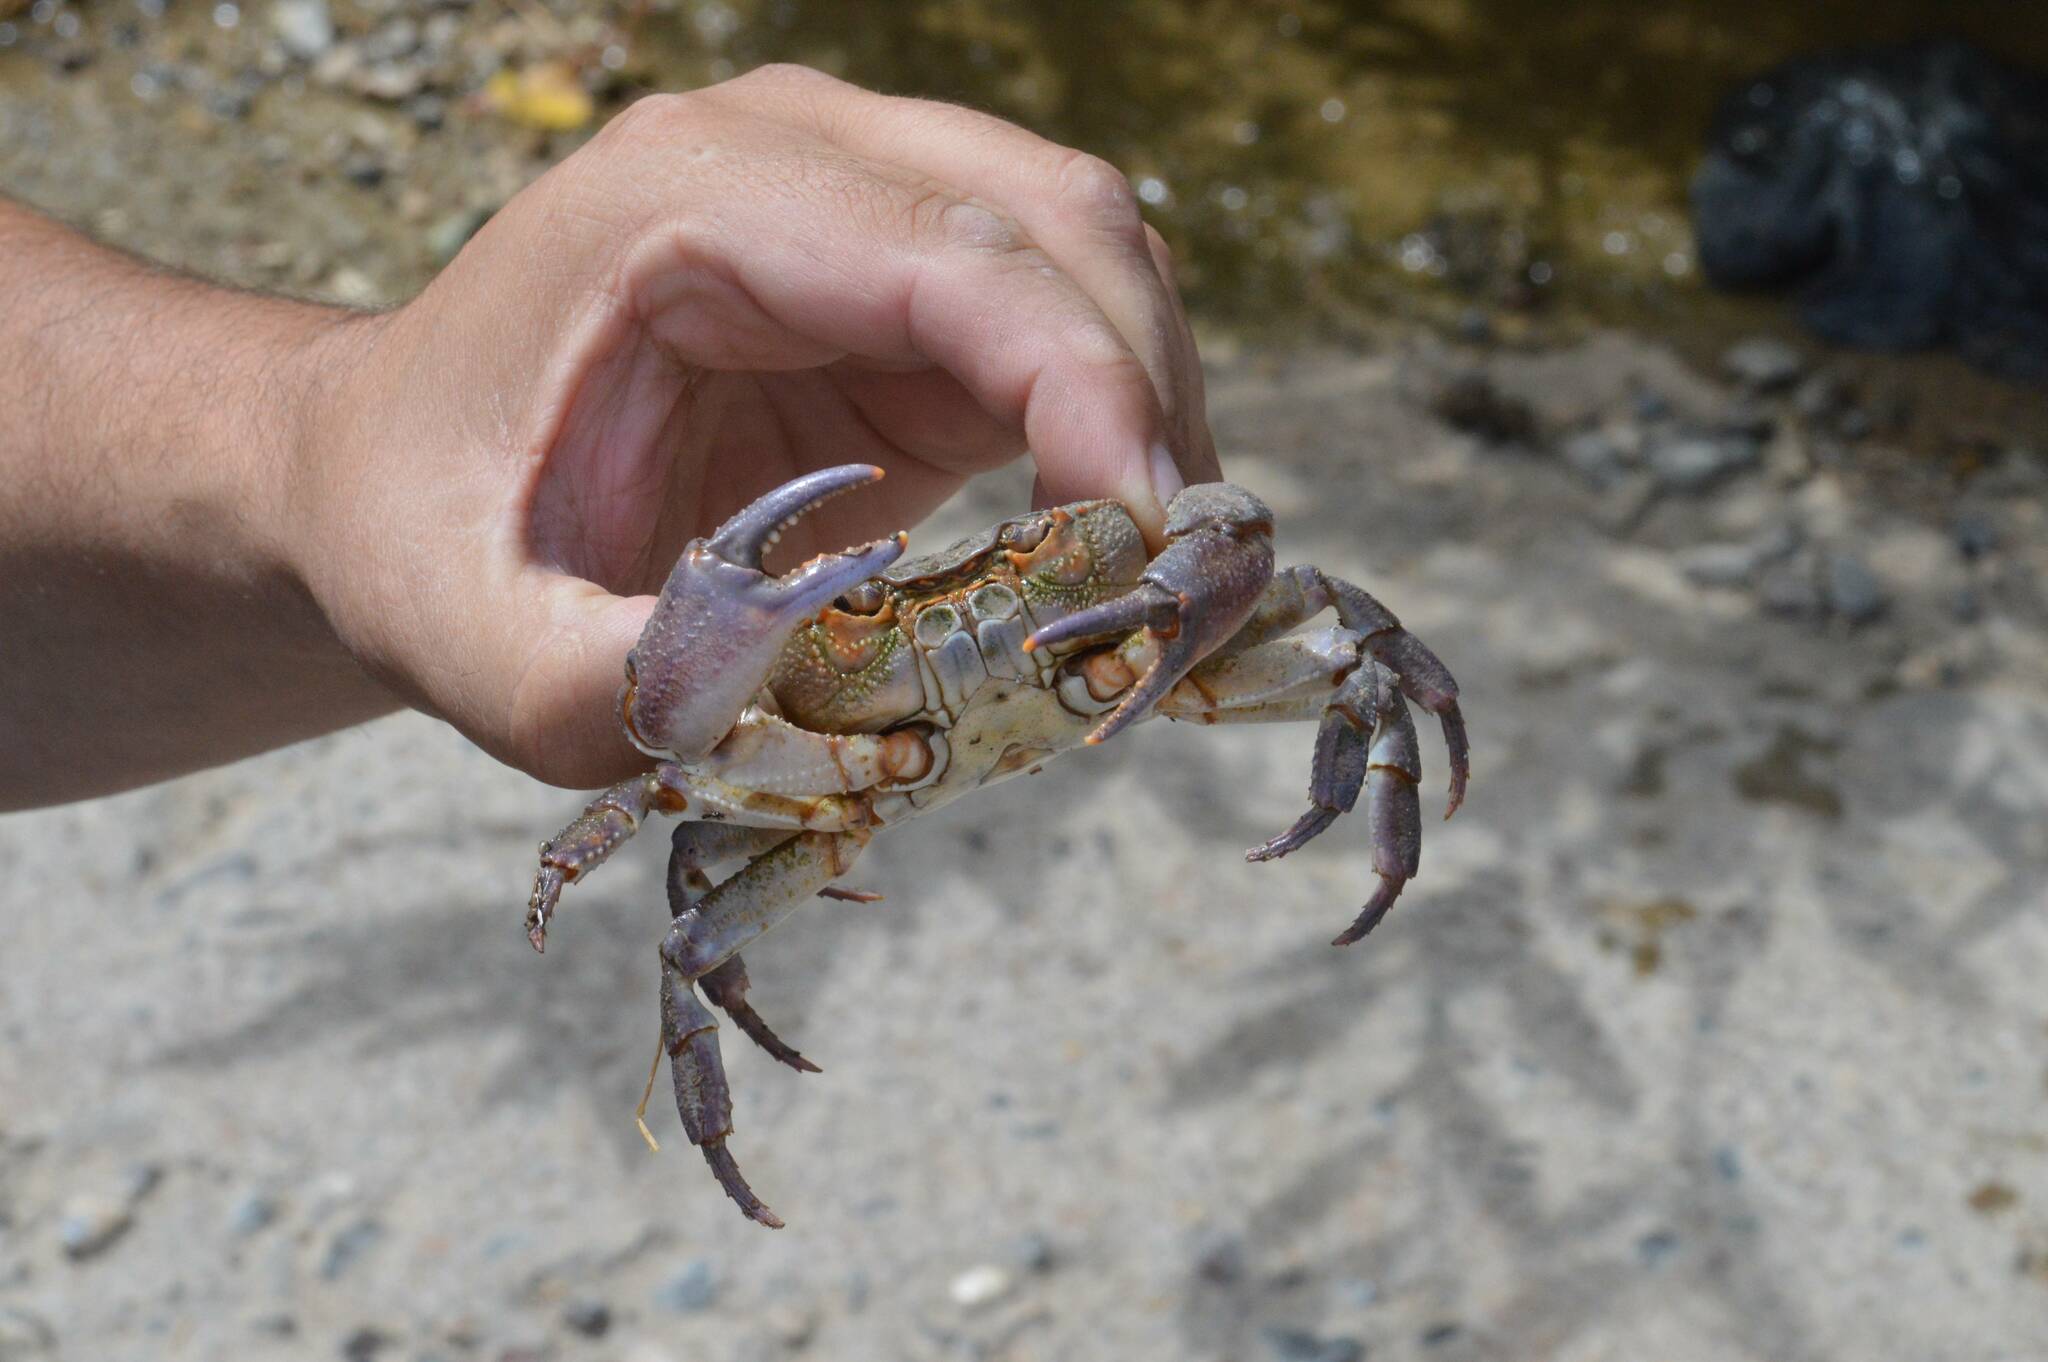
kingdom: Animalia
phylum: Arthropoda
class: Malacostraca
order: Decapoda
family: Potamidae
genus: Potamon
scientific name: Potamon algeriense
